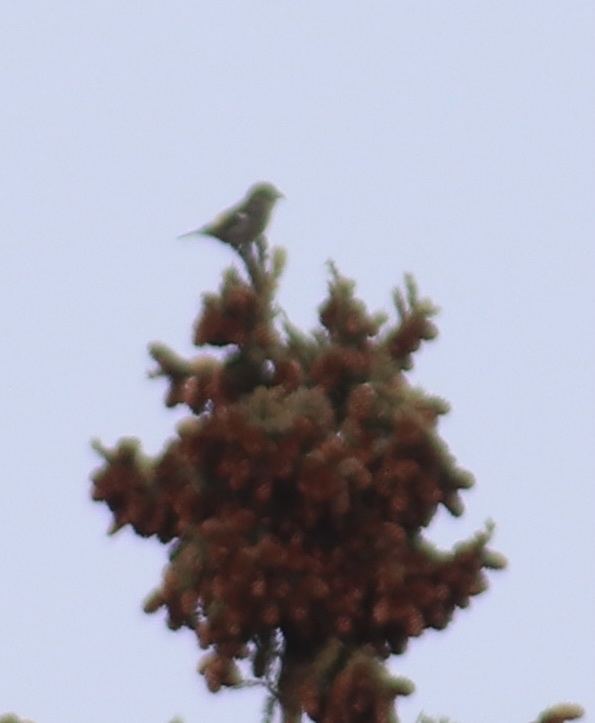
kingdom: Animalia
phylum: Chordata
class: Aves
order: Passeriformes
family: Fringillidae
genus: Loxia
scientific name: Loxia leucoptera
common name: Two-barred crossbill
